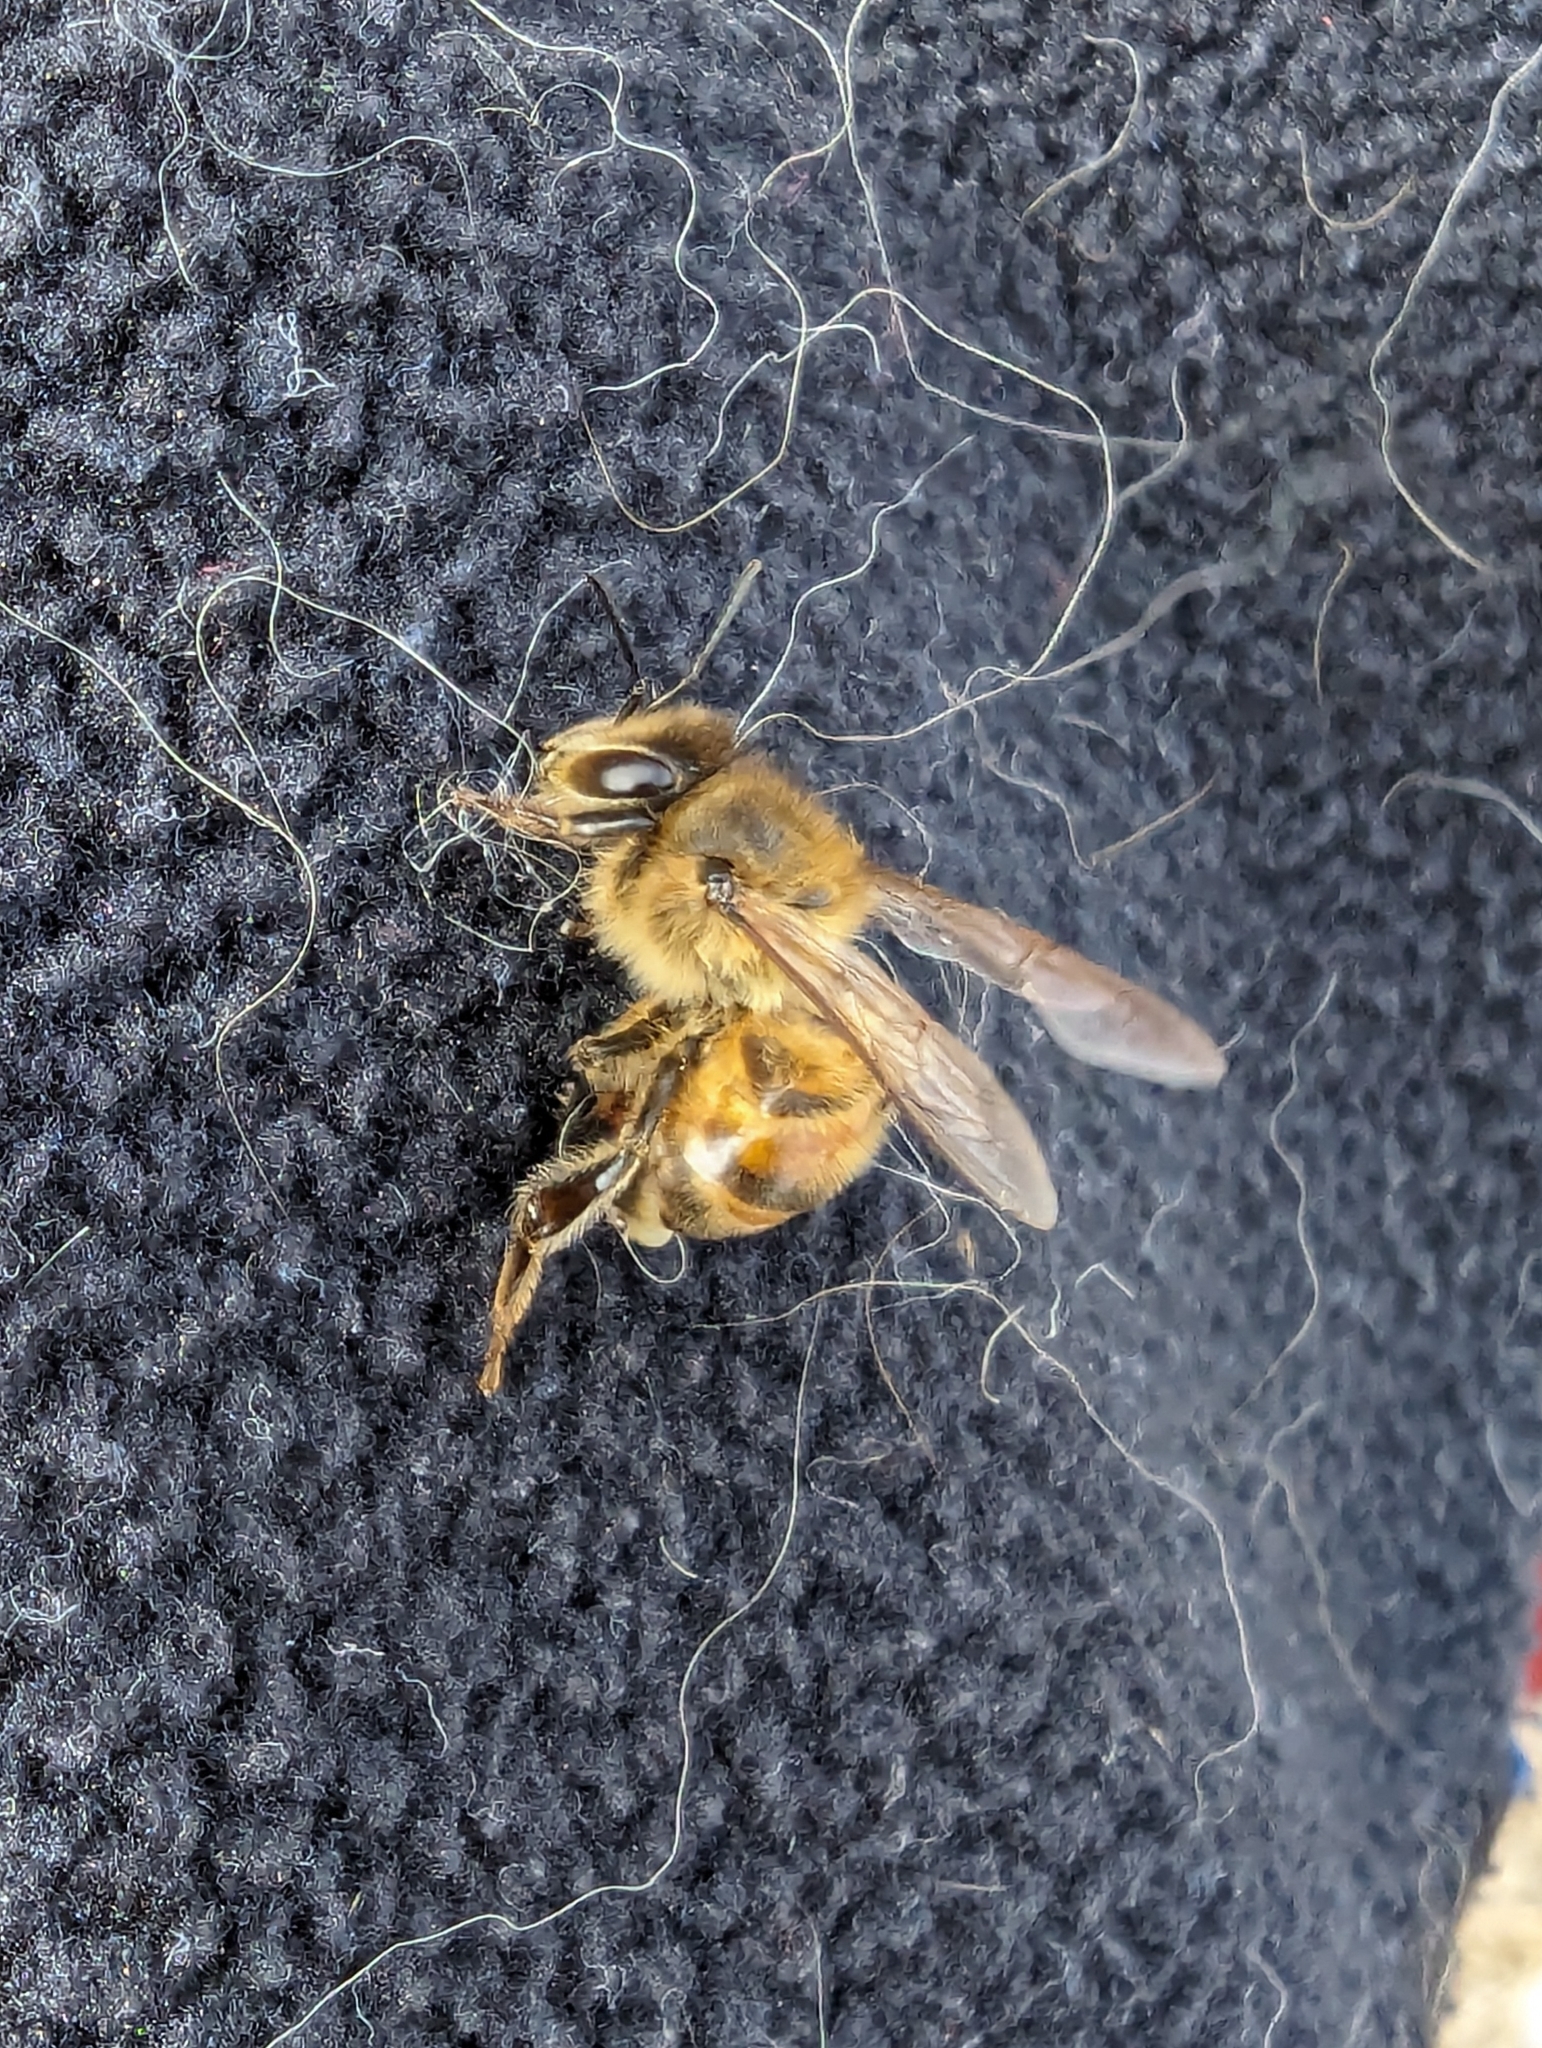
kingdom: Animalia
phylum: Arthropoda
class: Insecta
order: Hymenoptera
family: Apidae
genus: Apis
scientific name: Apis mellifera
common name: Honey bee
